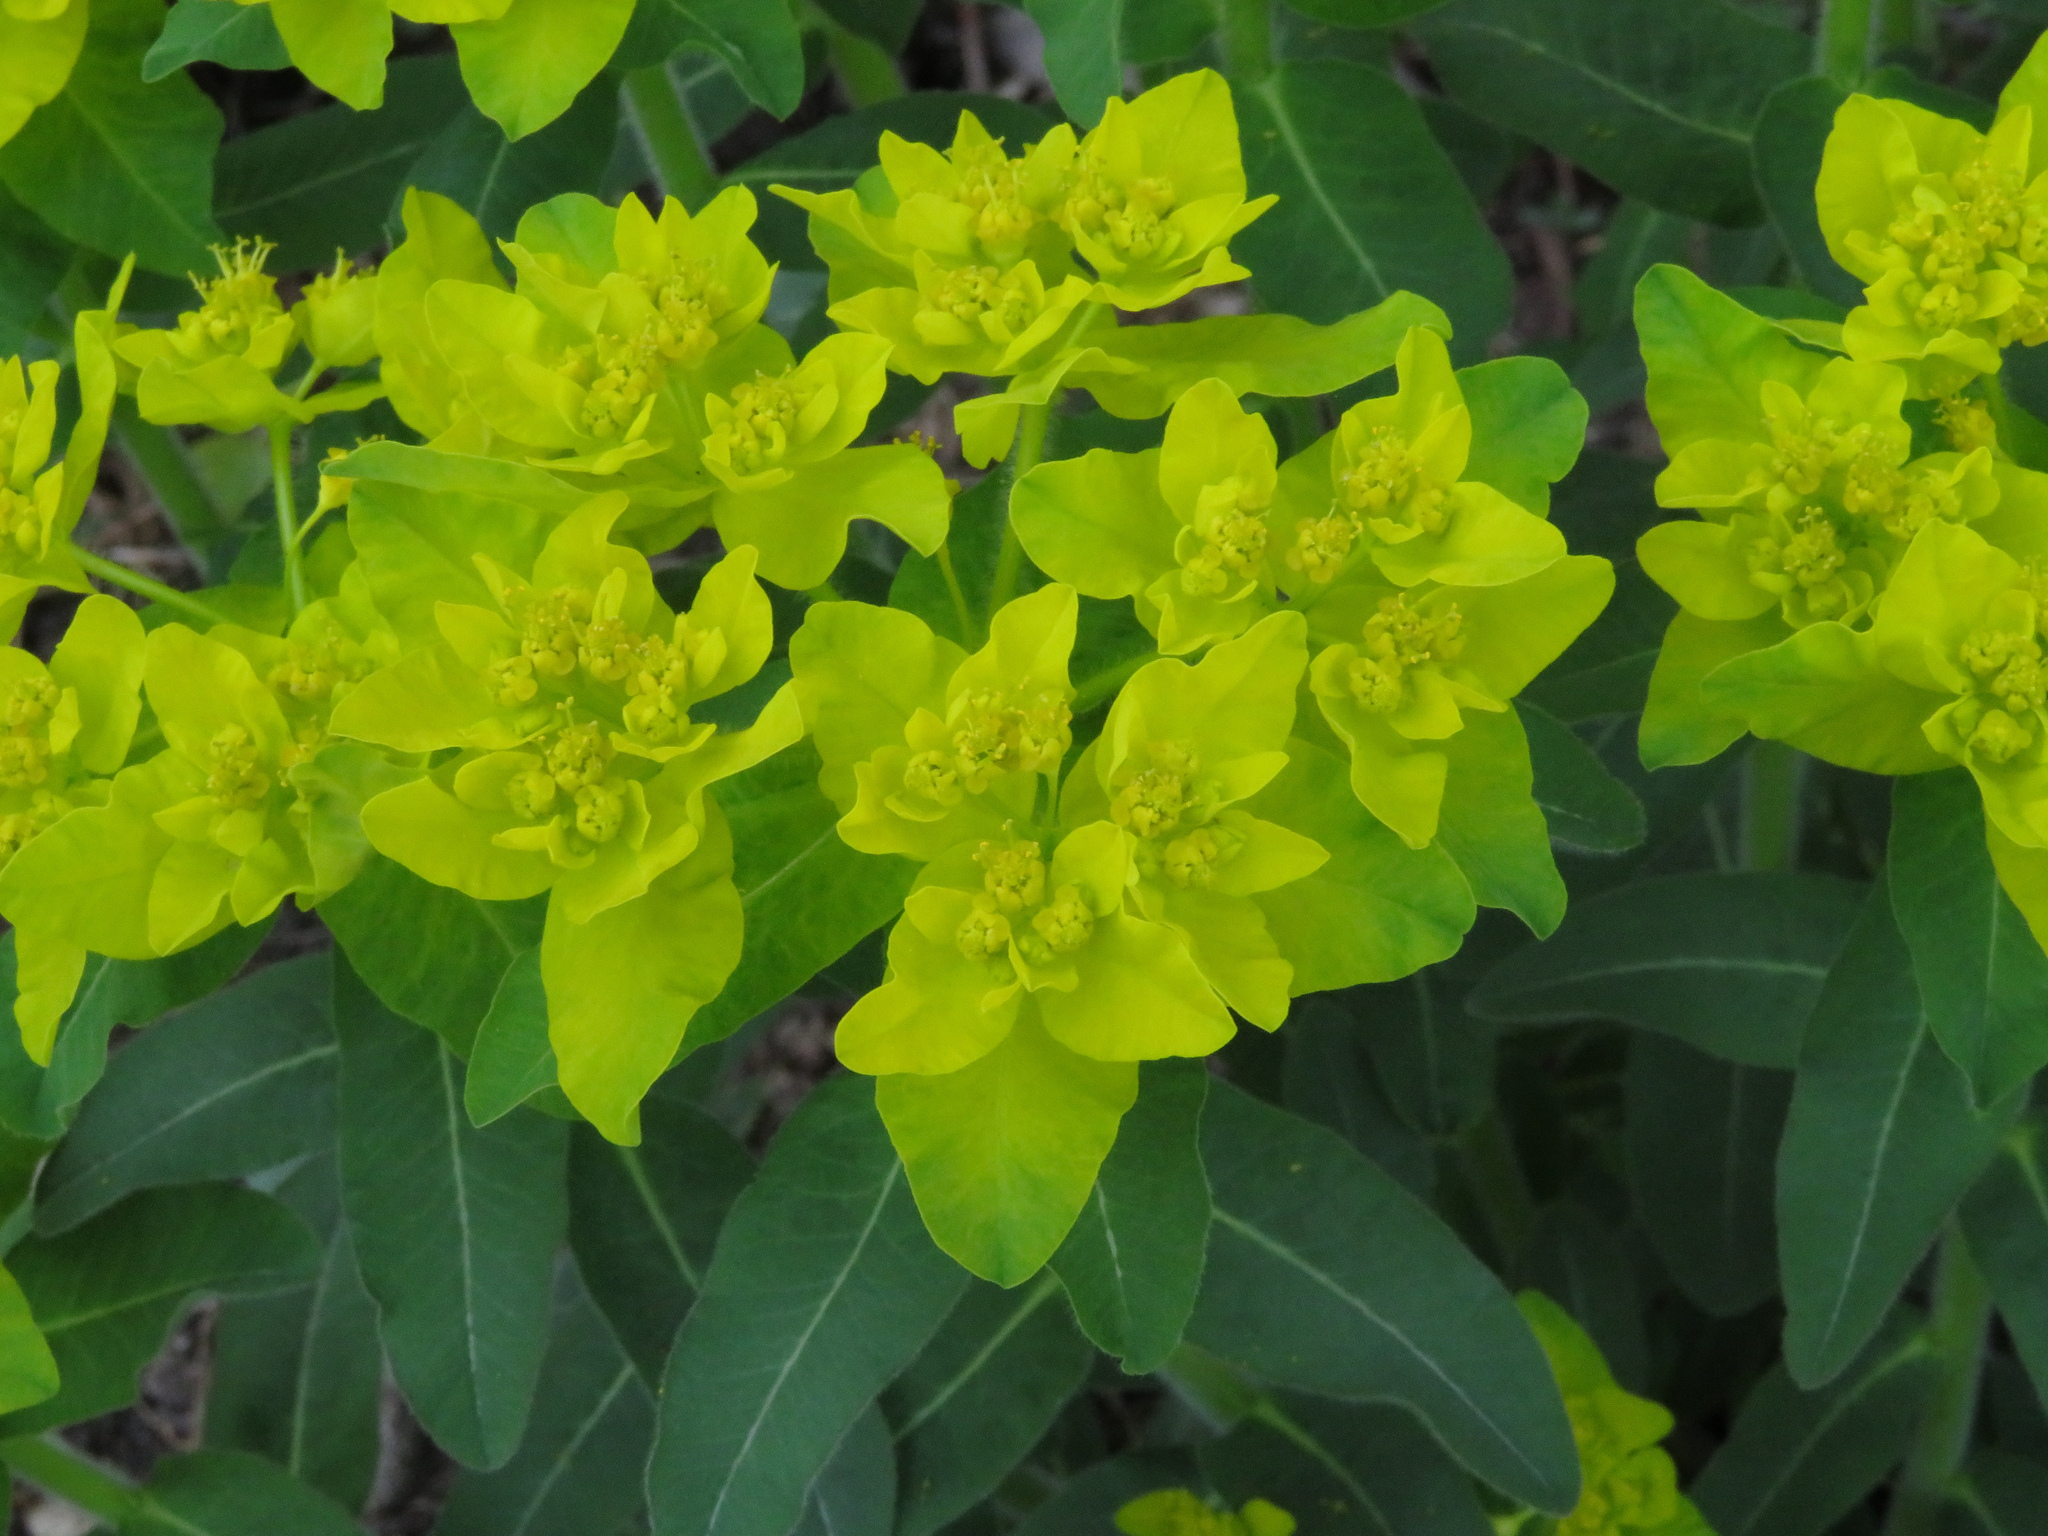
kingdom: Plantae
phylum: Tracheophyta
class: Magnoliopsida
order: Malpighiales
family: Euphorbiaceae
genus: Euphorbia
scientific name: Euphorbia epithymoides
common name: Cushion spurge
